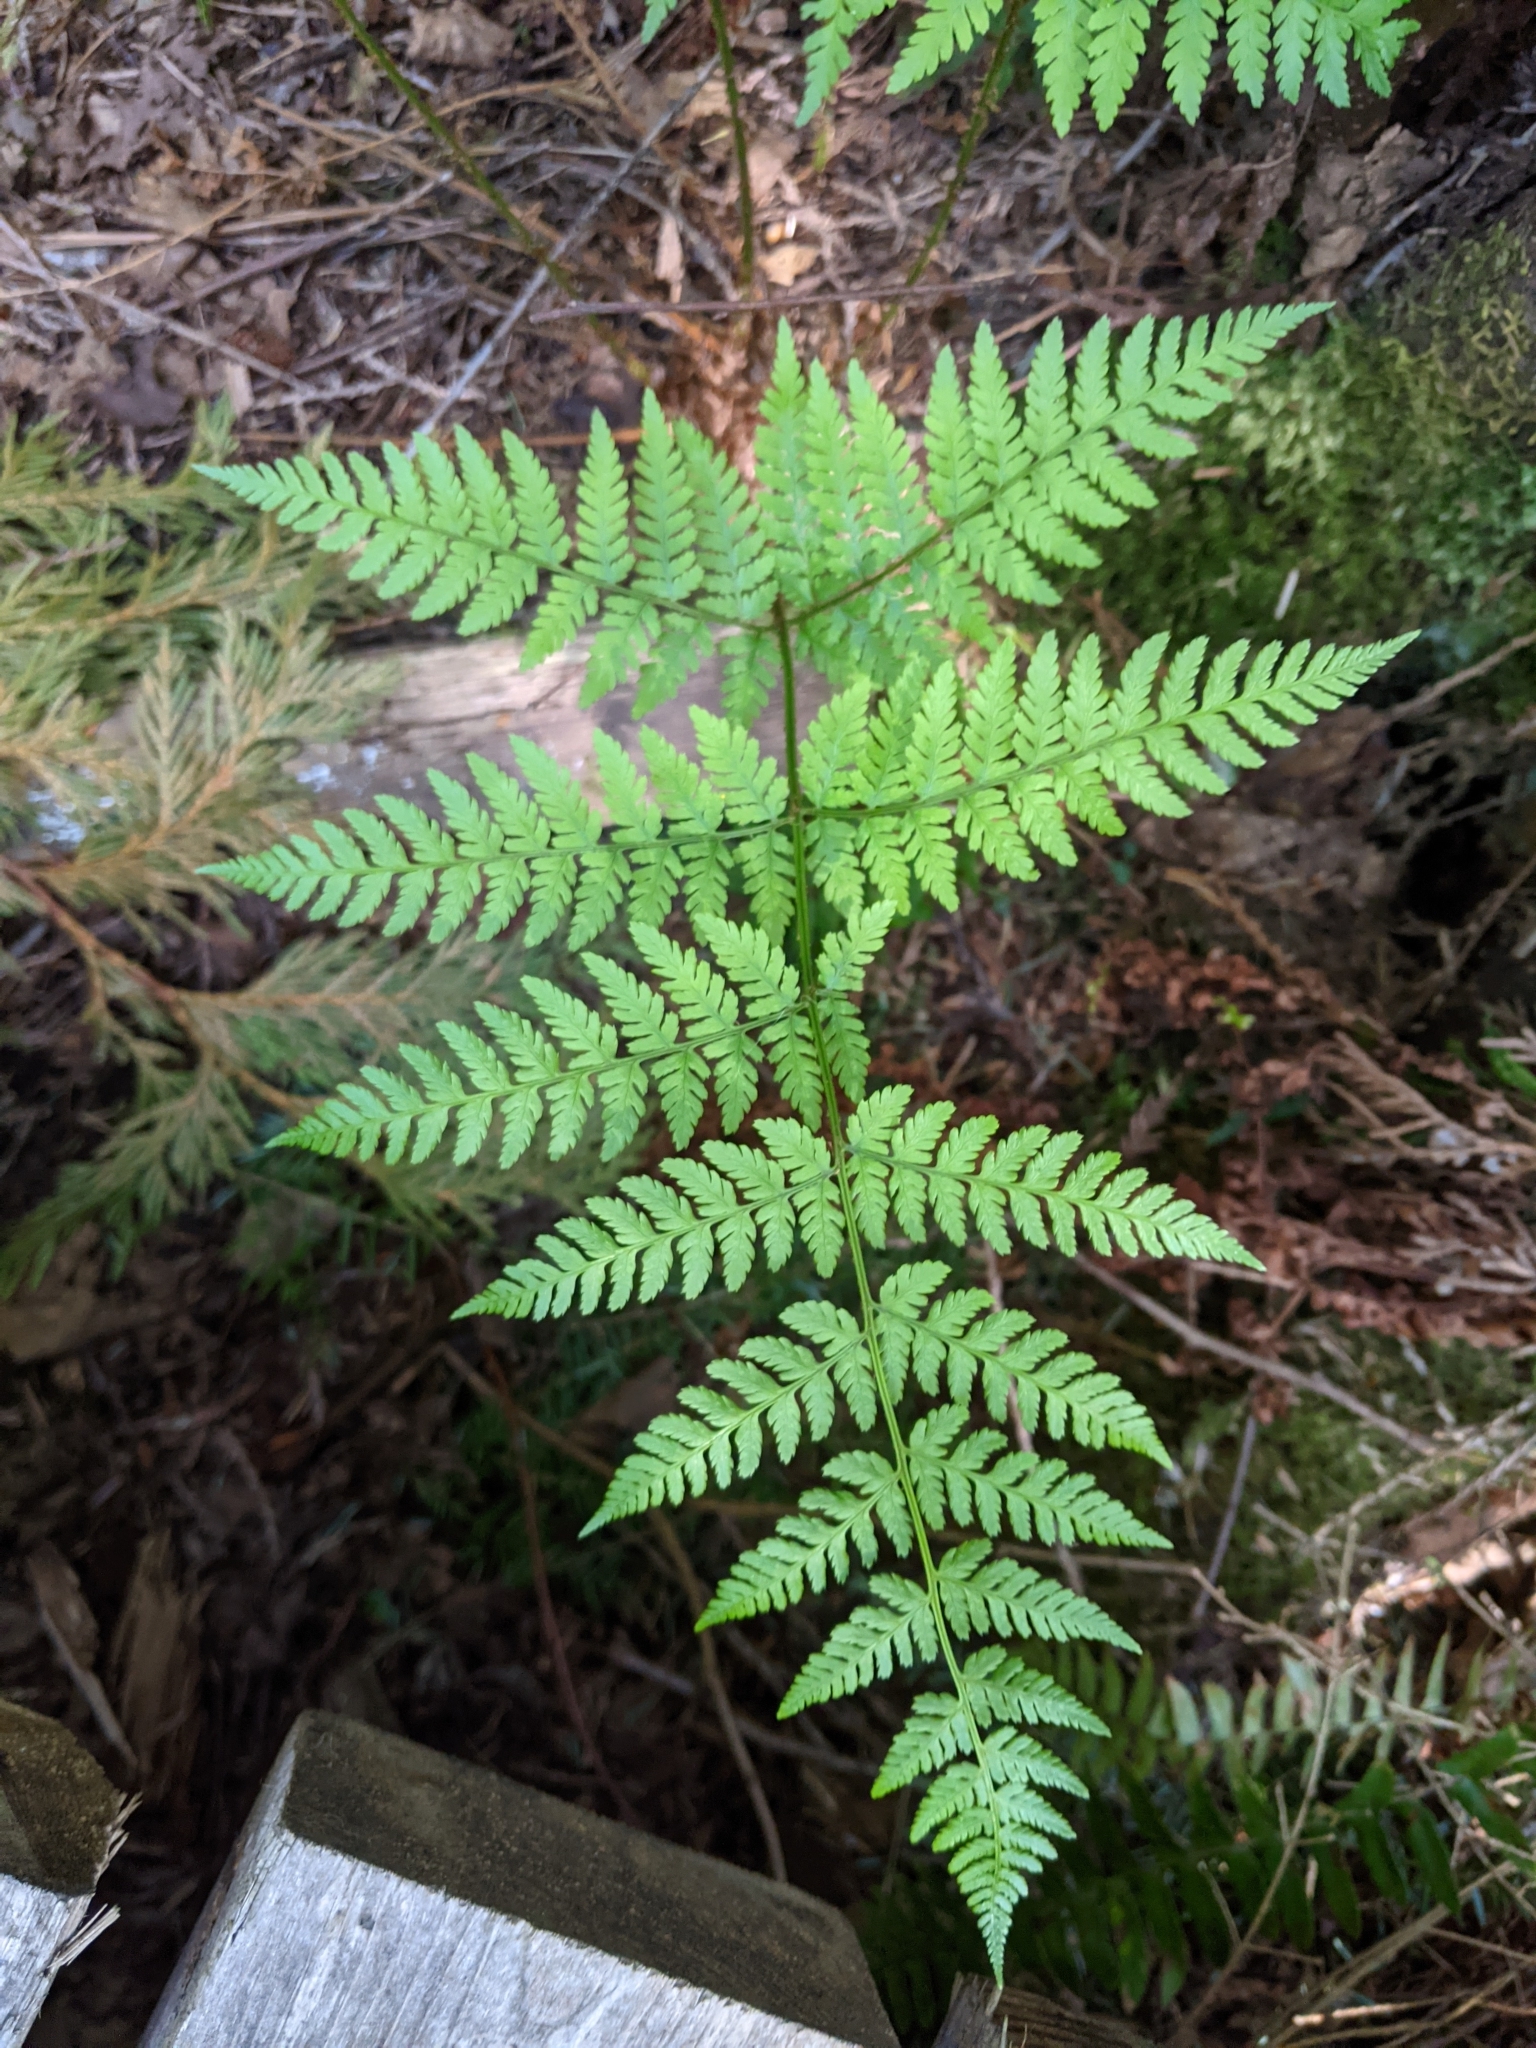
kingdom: Plantae
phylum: Tracheophyta
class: Polypodiopsida
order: Polypodiales
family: Dryopteridaceae
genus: Dryopteris
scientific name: Dryopteris expansa
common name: Northern buckler fern
